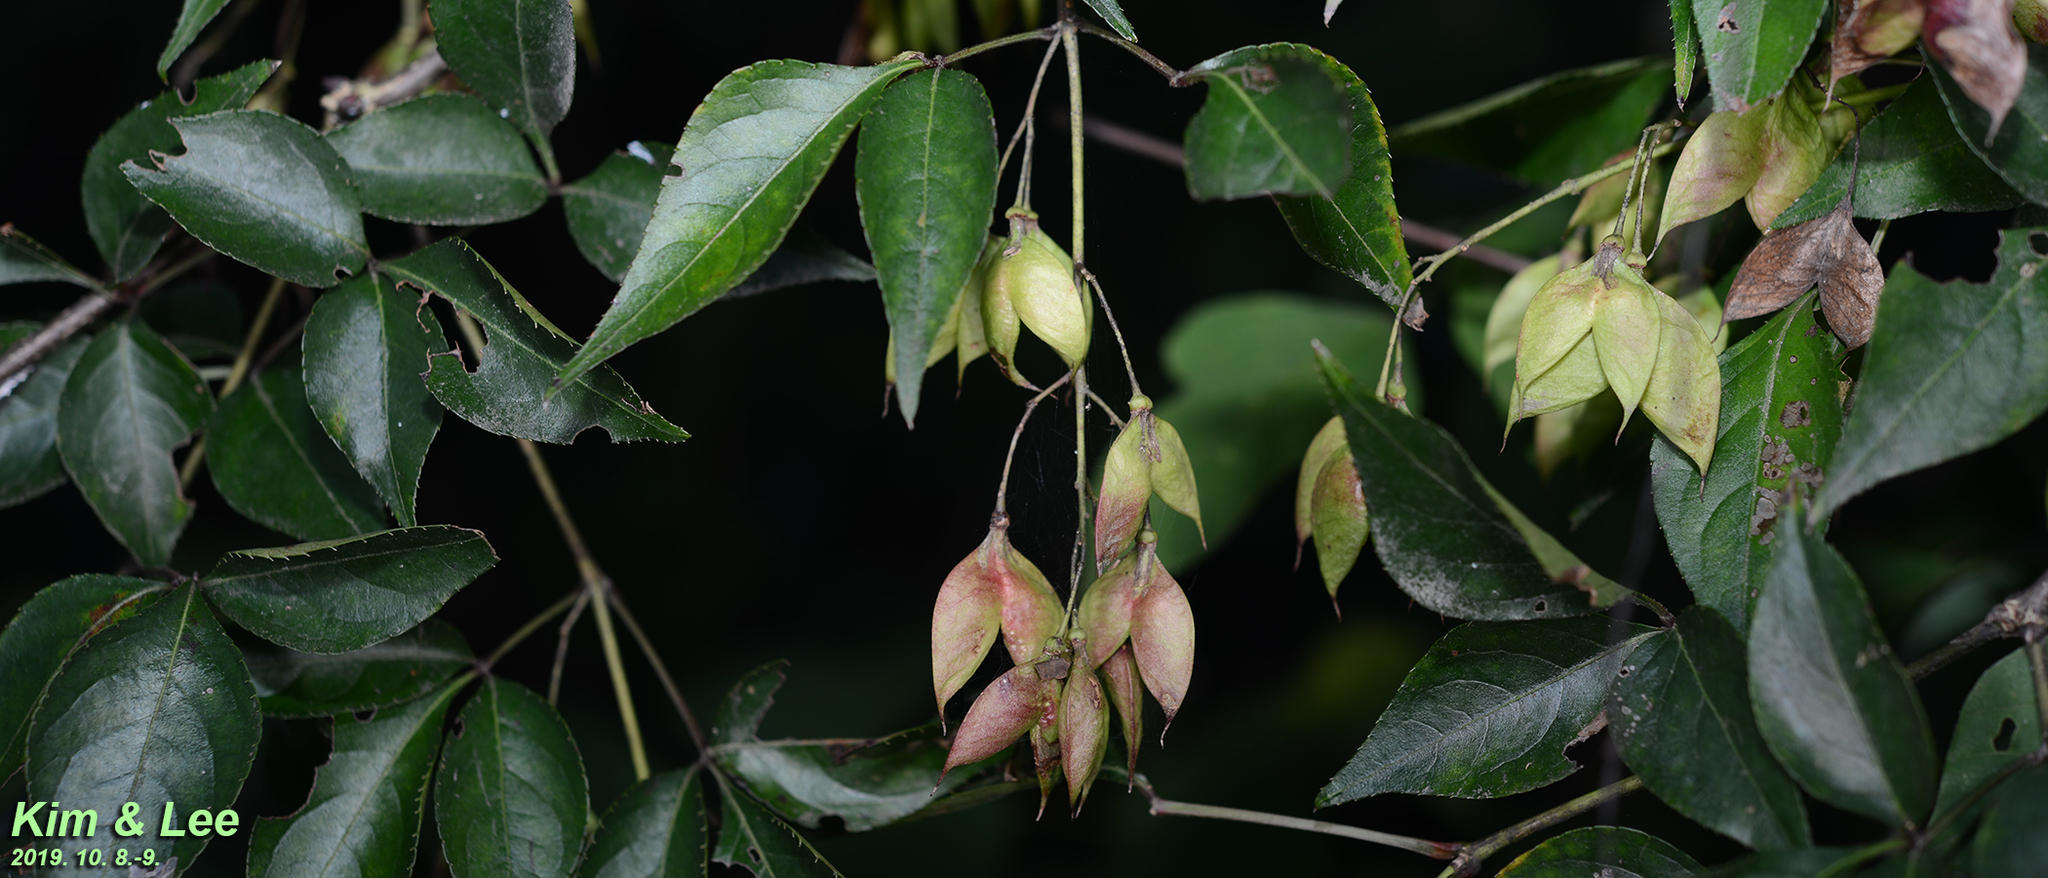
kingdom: Plantae
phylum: Tracheophyta
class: Magnoliopsida
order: Crossosomatales
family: Staphyleaceae
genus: Staphylea
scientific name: Staphylea bumalda
